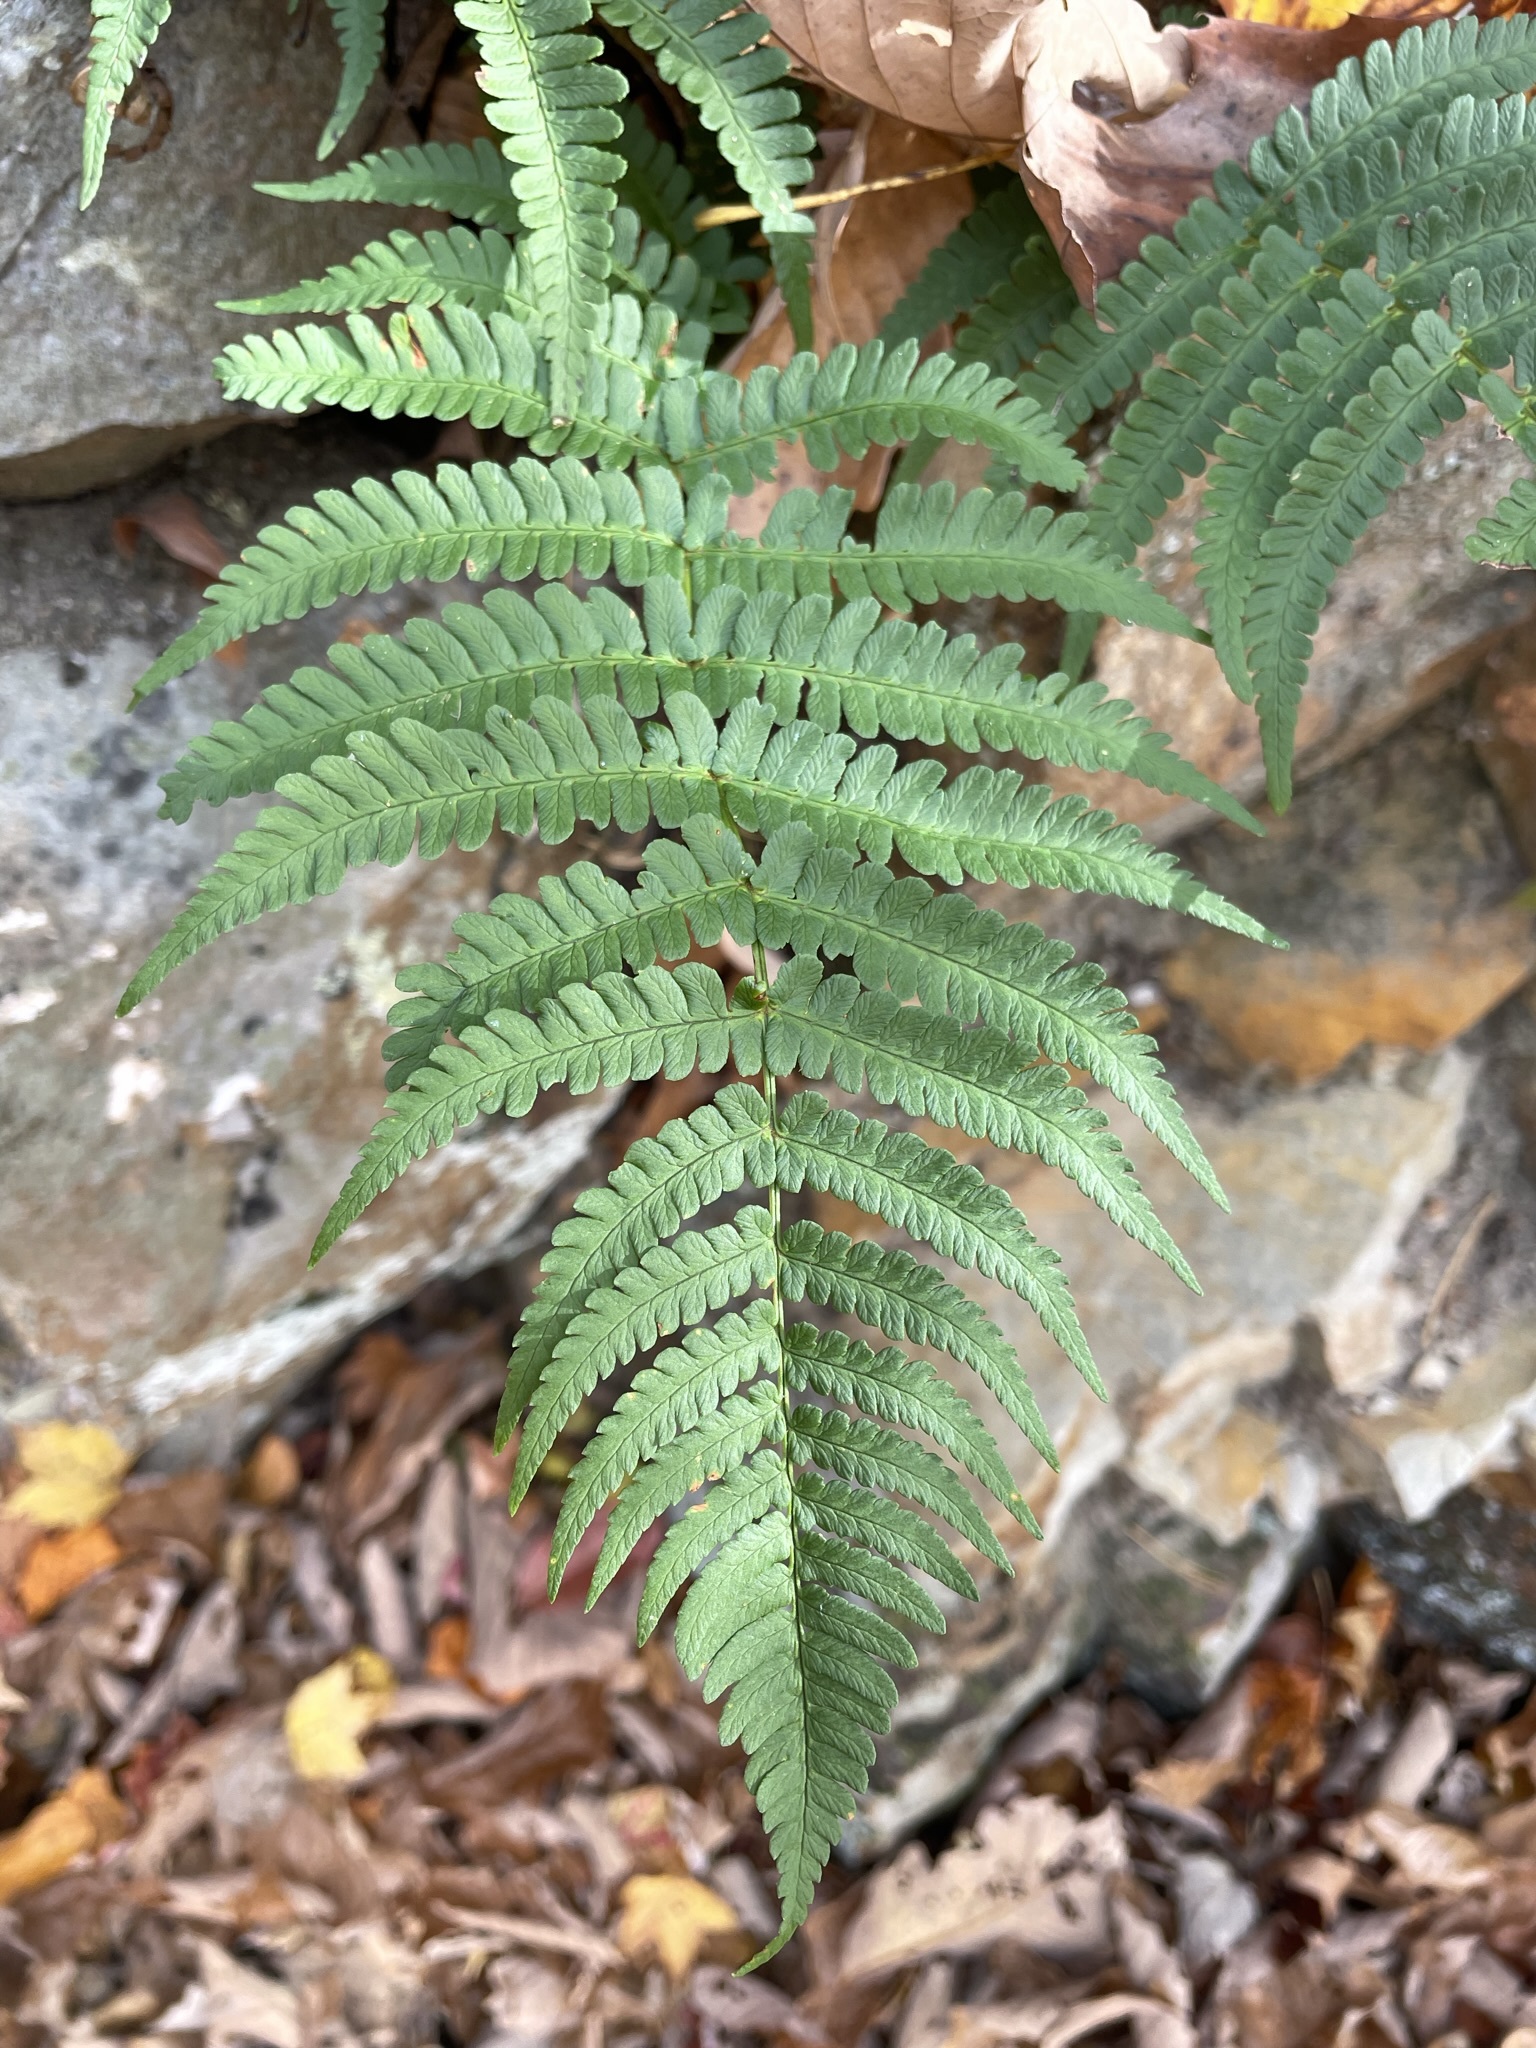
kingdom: Plantae
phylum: Tracheophyta
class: Polypodiopsida
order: Polypodiales
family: Dryopteridaceae
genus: Dryopteris
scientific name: Dryopteris marginalis
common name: Marginal wood fern
